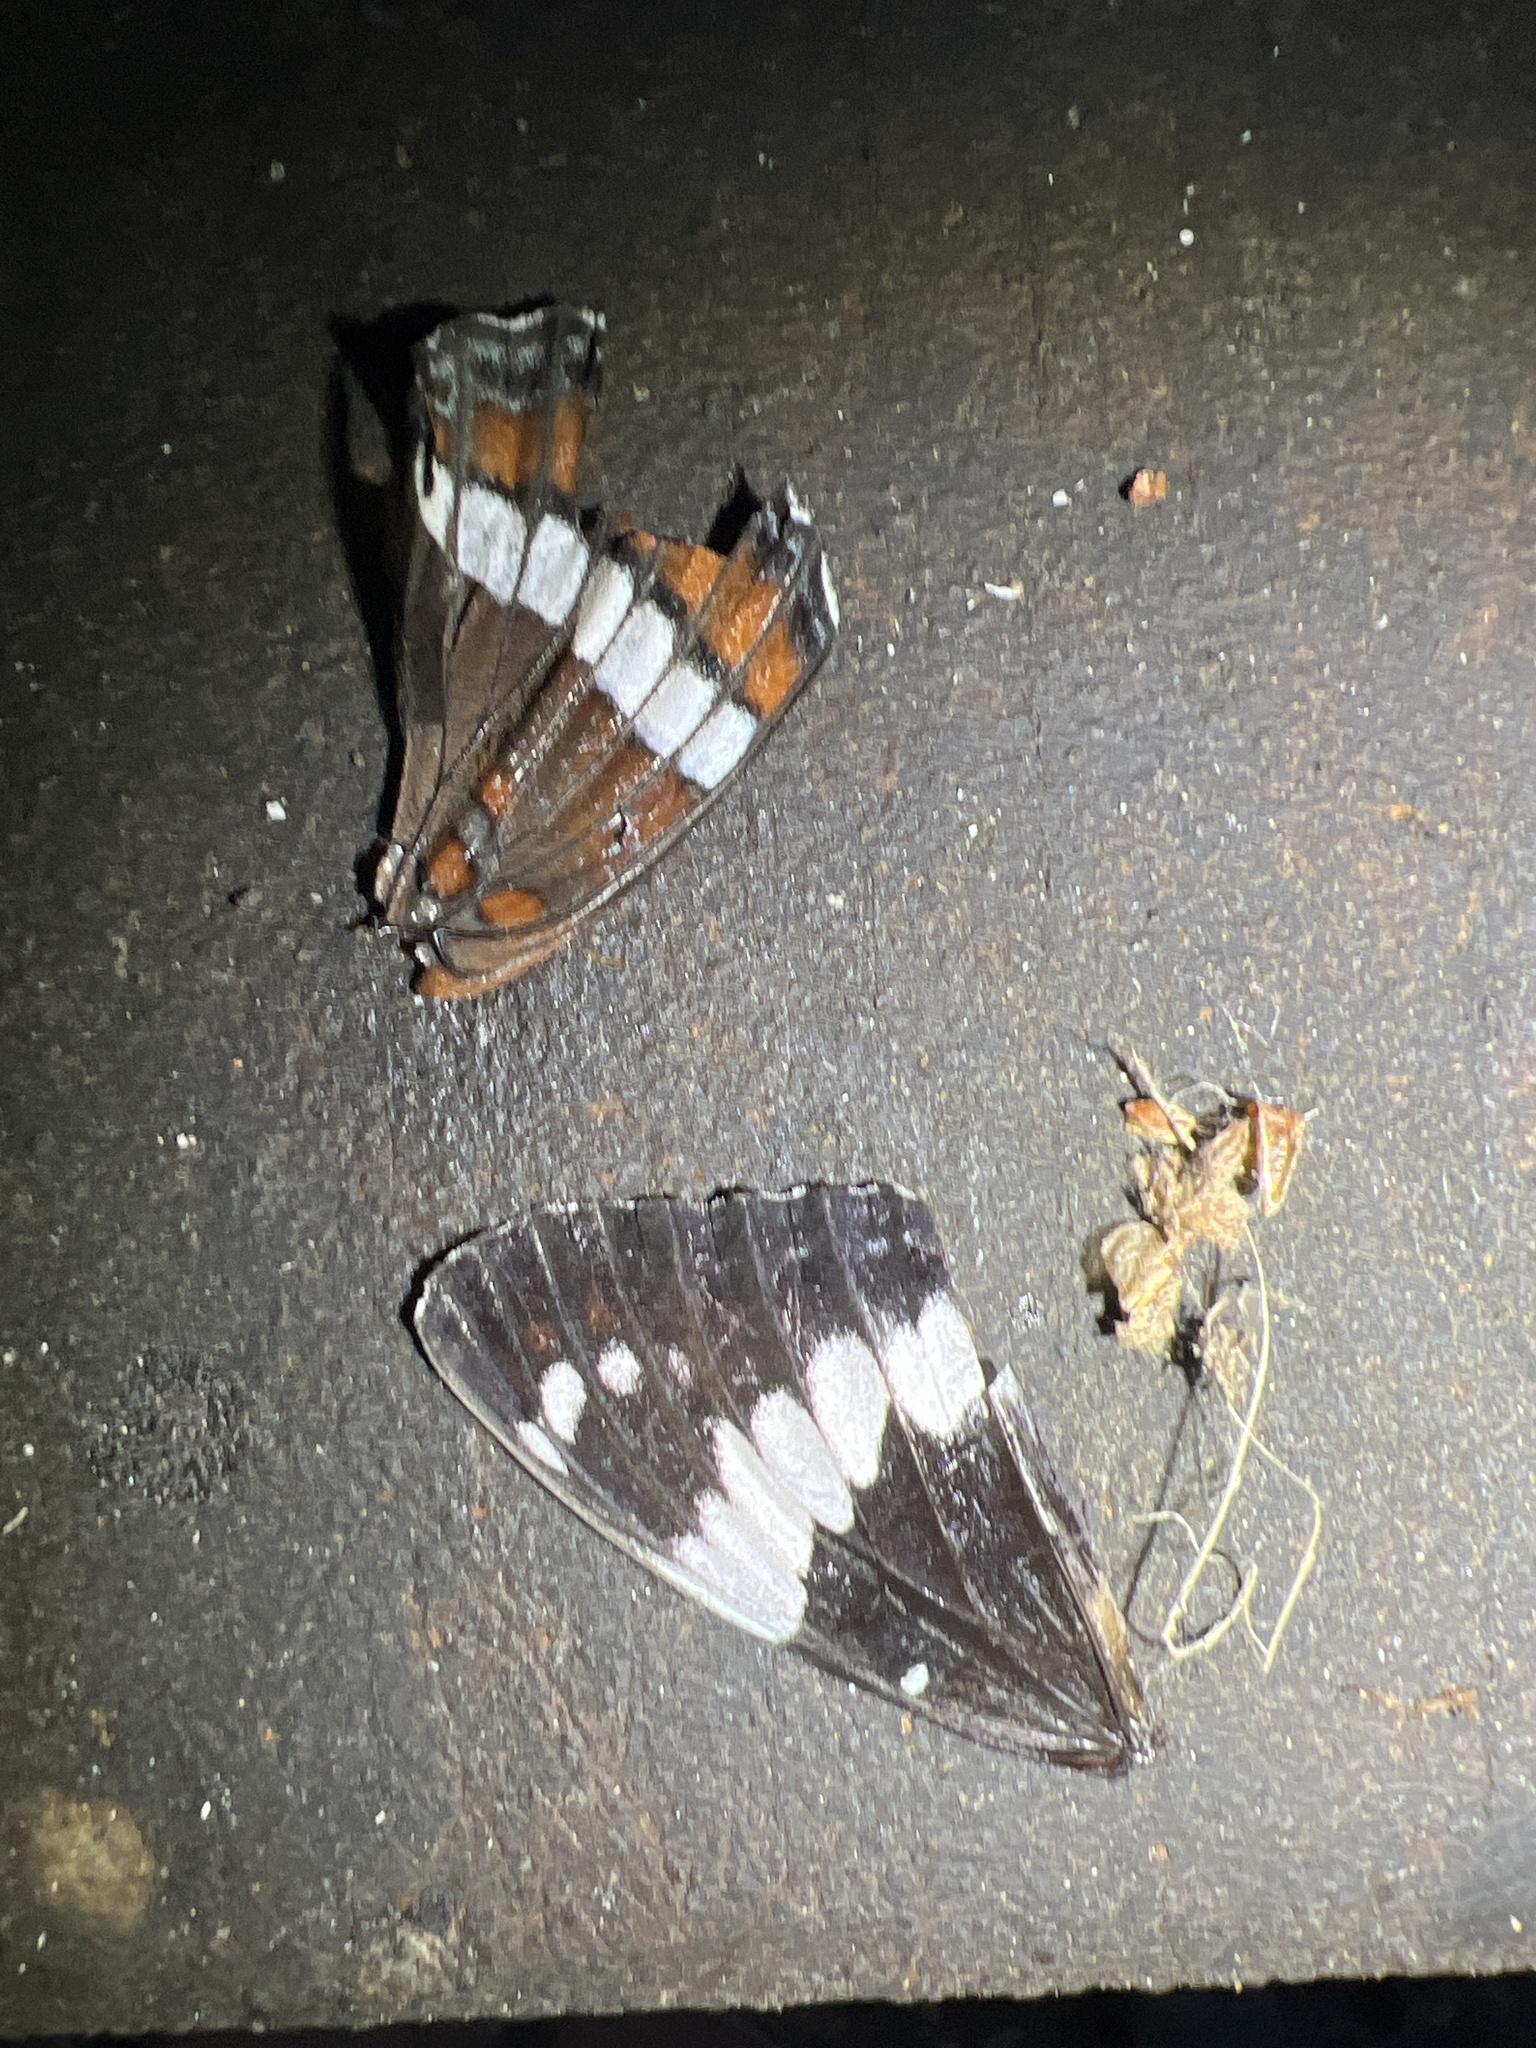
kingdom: Animalia
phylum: Arthropoda
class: Insecta
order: Lepidoptera
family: Nymphalidae
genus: Limenitis
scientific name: Limenitis arthemis
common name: Red-spotted admiral
